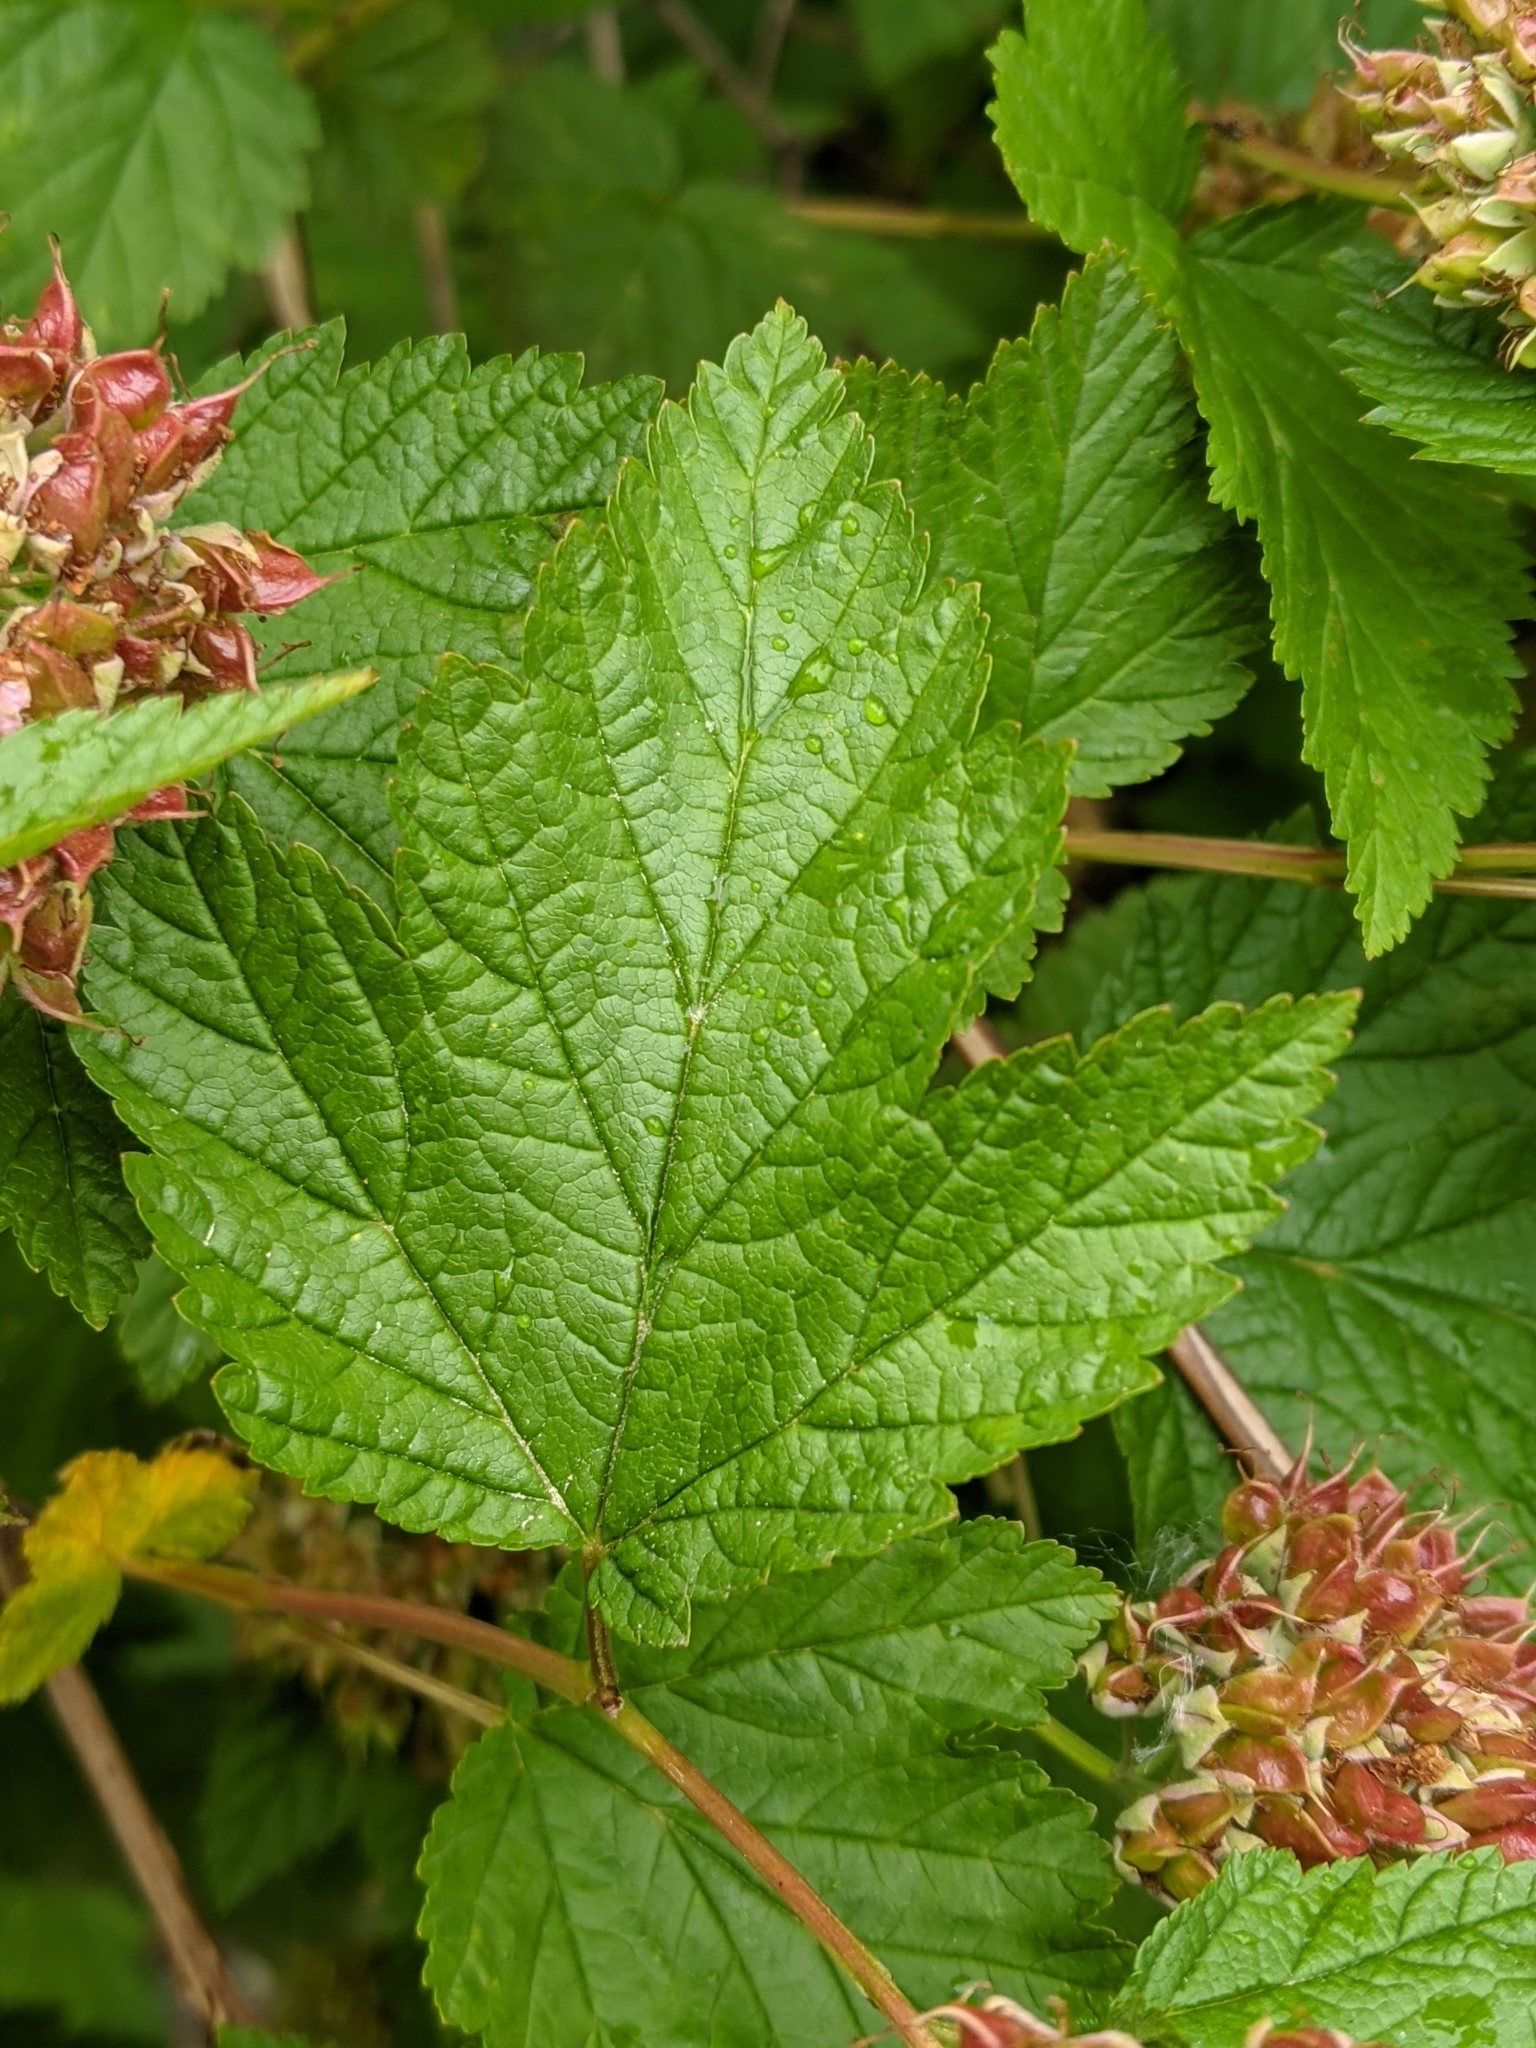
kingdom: Plantae
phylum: Tracheophyta
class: Magnoliopsida
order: Rosales
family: Rosaceae
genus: Physocarpus
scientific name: Physocarpus capitatus
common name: Pacific ninebark
